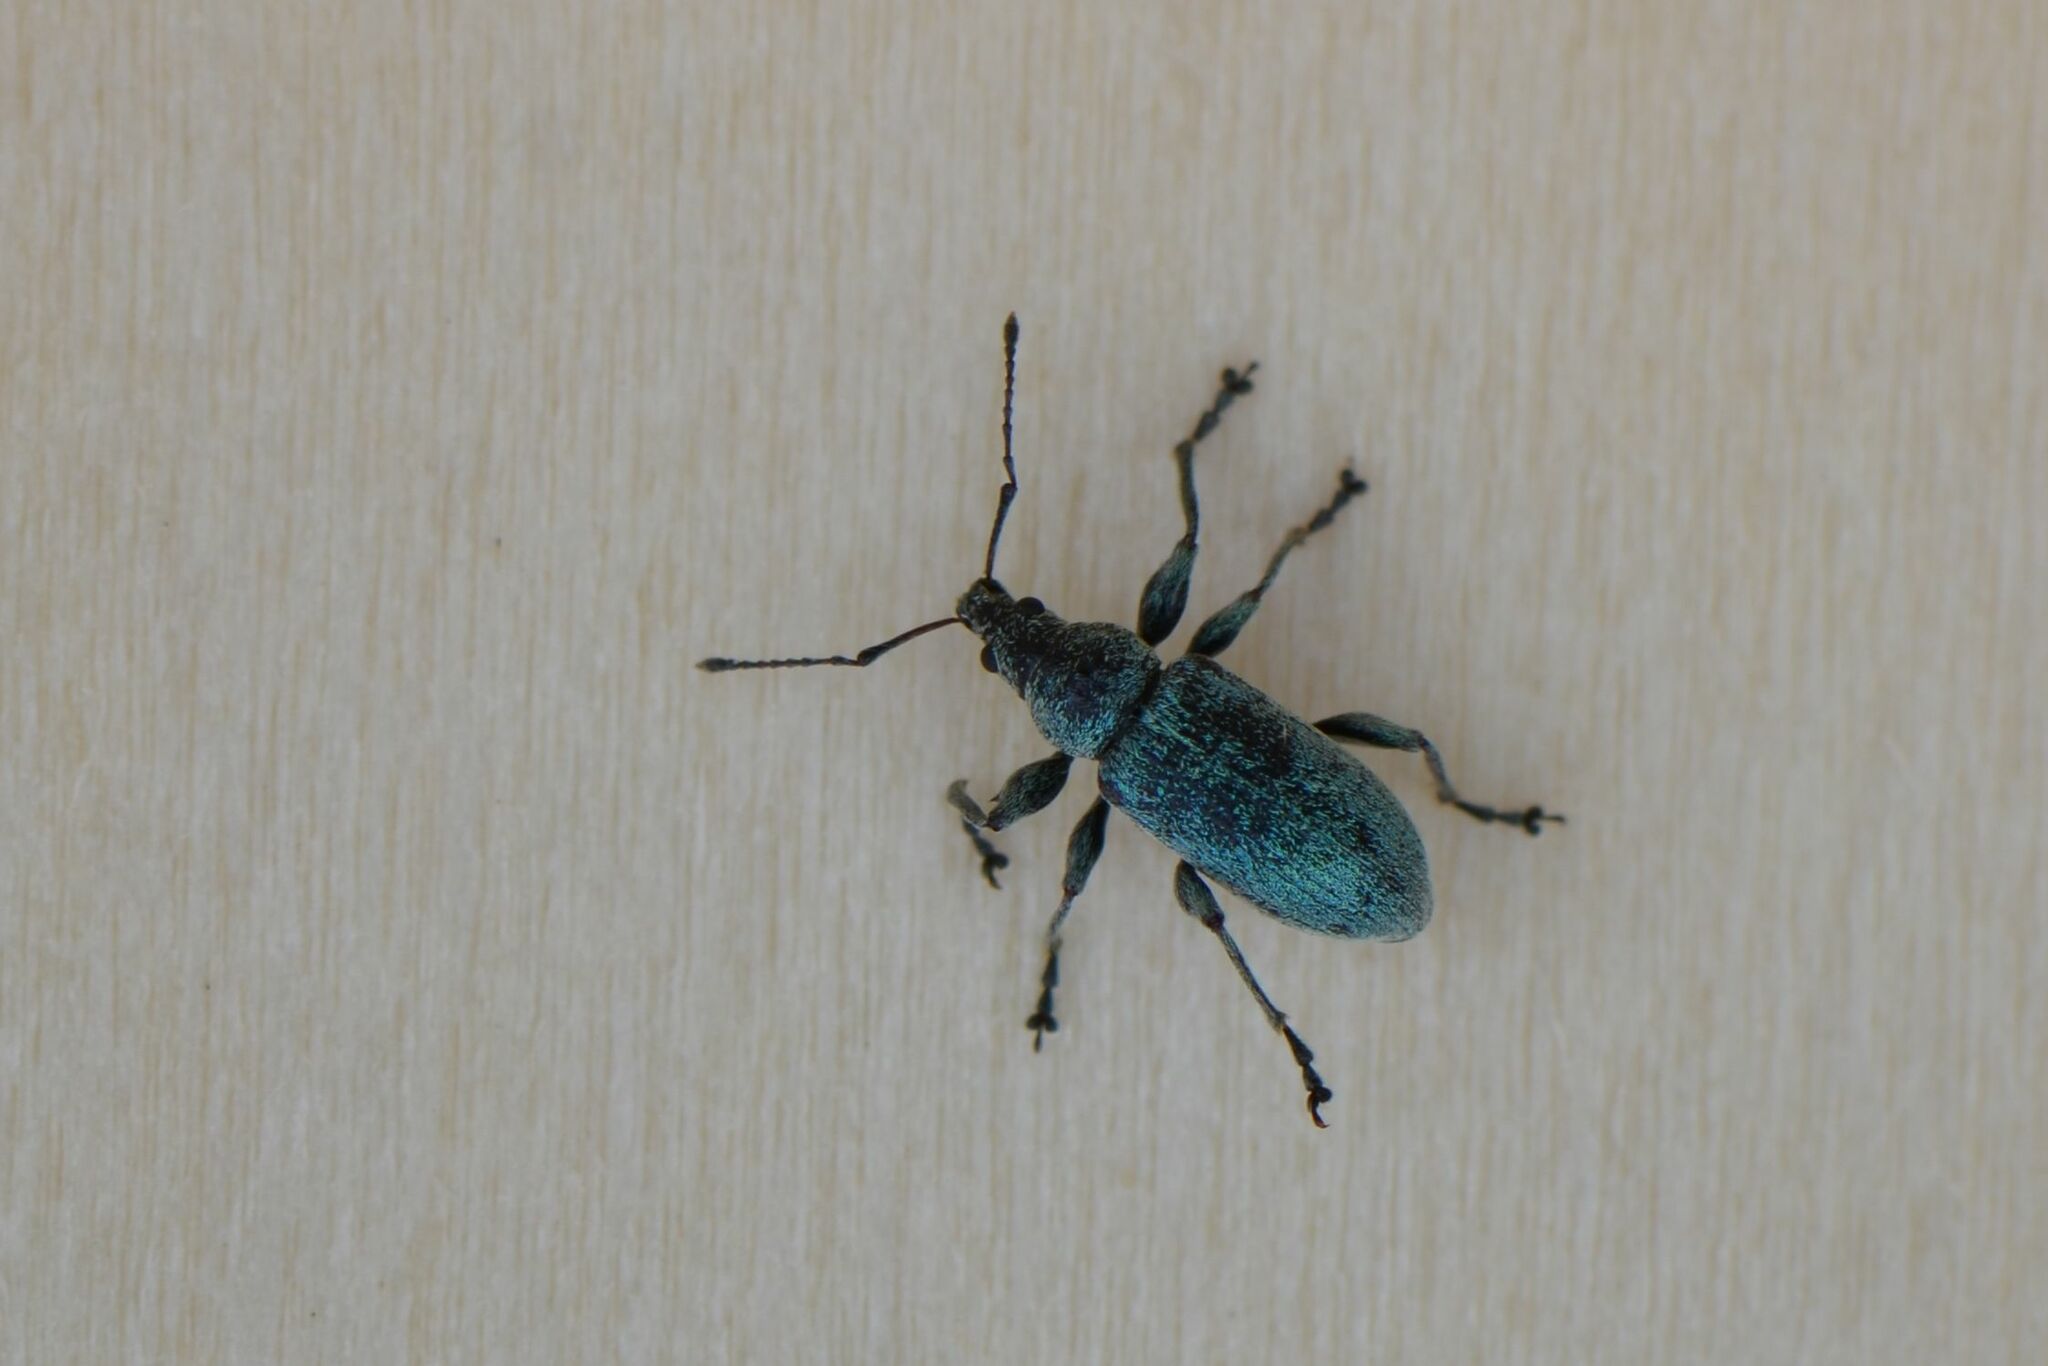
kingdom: Animalia
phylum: Arthropoda
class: Insecta
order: Coleoptera
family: Curculionidae
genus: Phyllobius
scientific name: Phyllobius pomaceus
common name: Green nettle weevil
